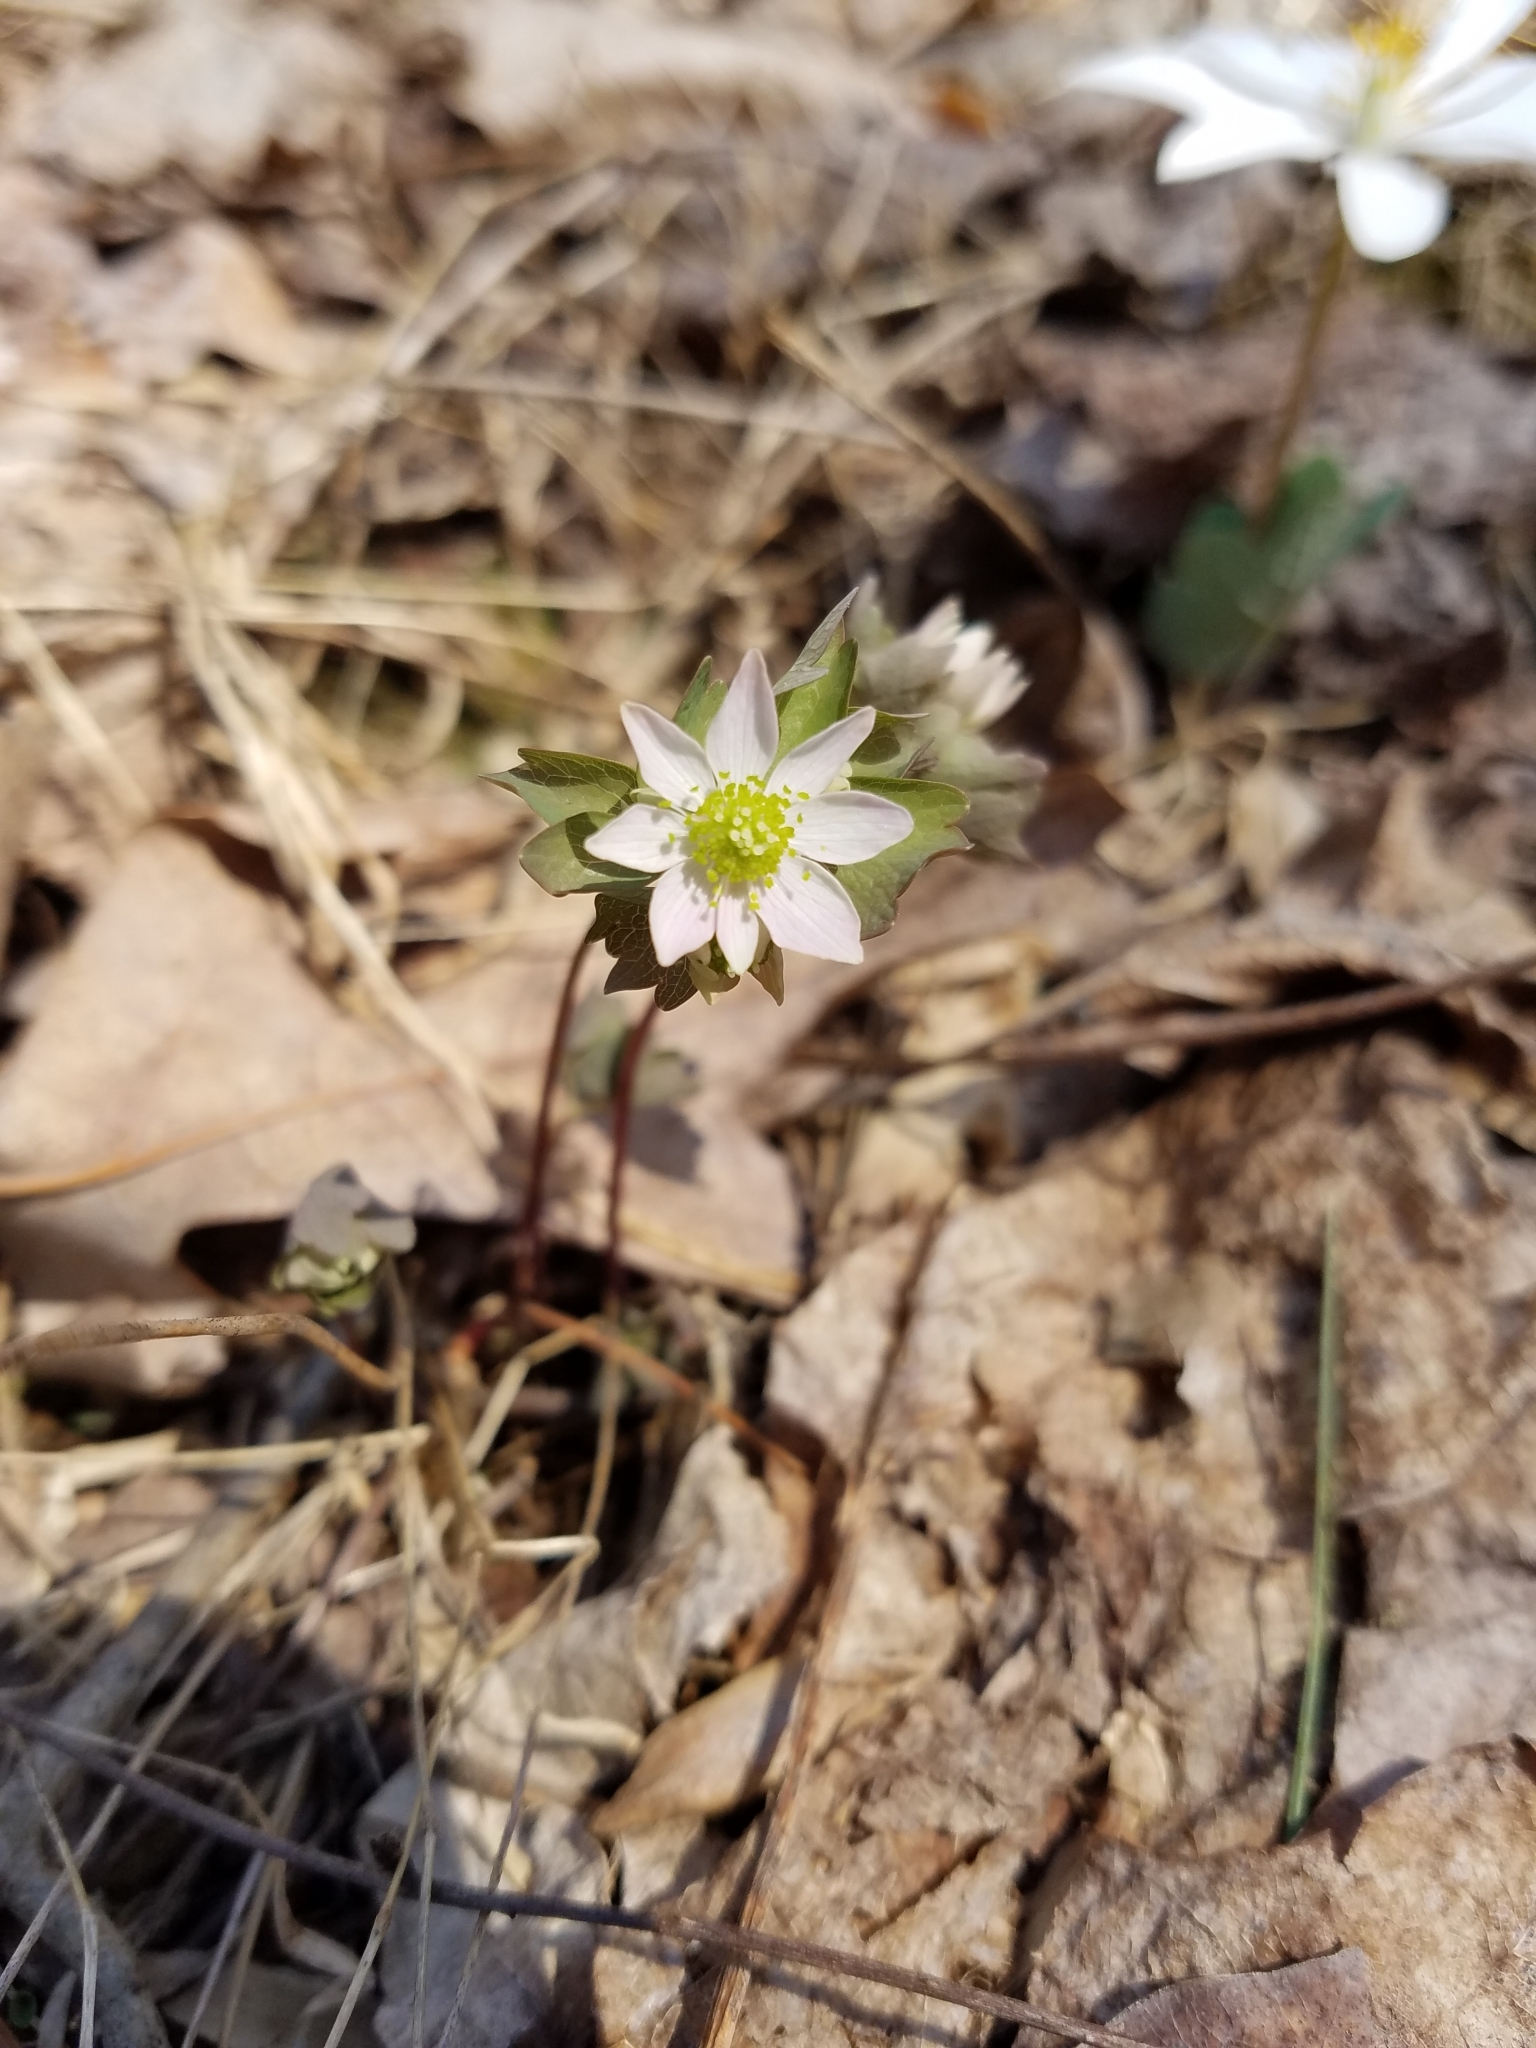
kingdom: Plantae
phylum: Tracheophyta
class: Magnoliopsida
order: Ranunculales
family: Ranunculaceae
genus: Thalictrum
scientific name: Thalictrum thalictroides
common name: Rue-anemone
